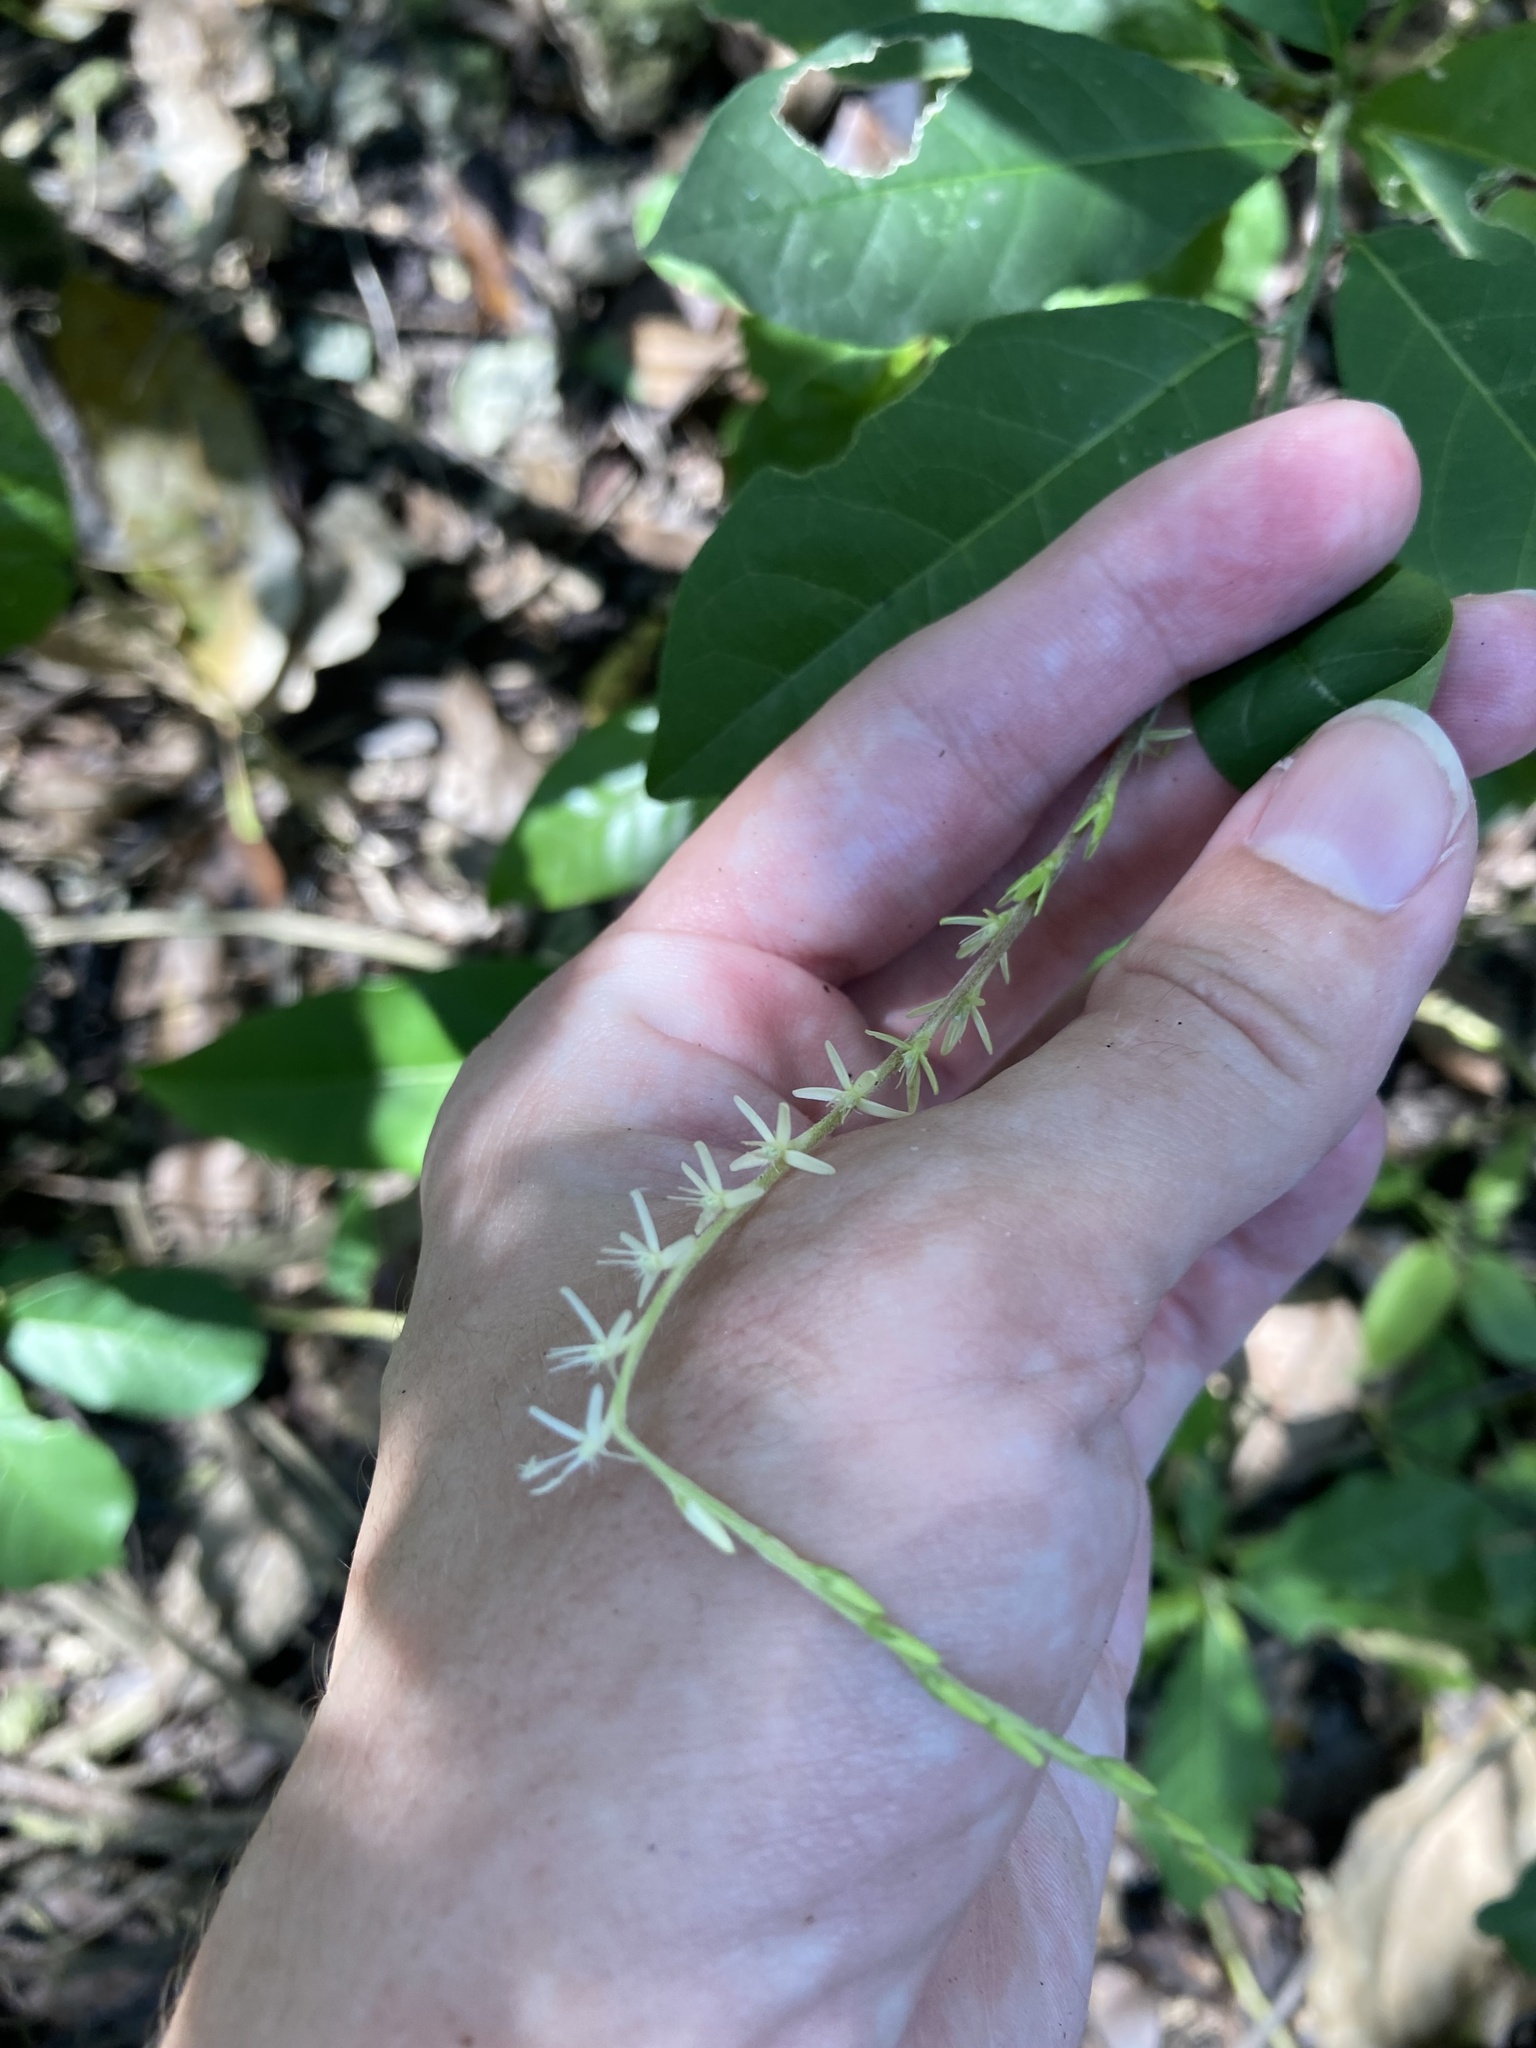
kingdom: Plantae
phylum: Tracheophyta
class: Magnoliopsida
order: Caryophyllales
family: Phytolaccaceae
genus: Petiveria
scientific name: Petiveria alliacea
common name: Garlicweed
